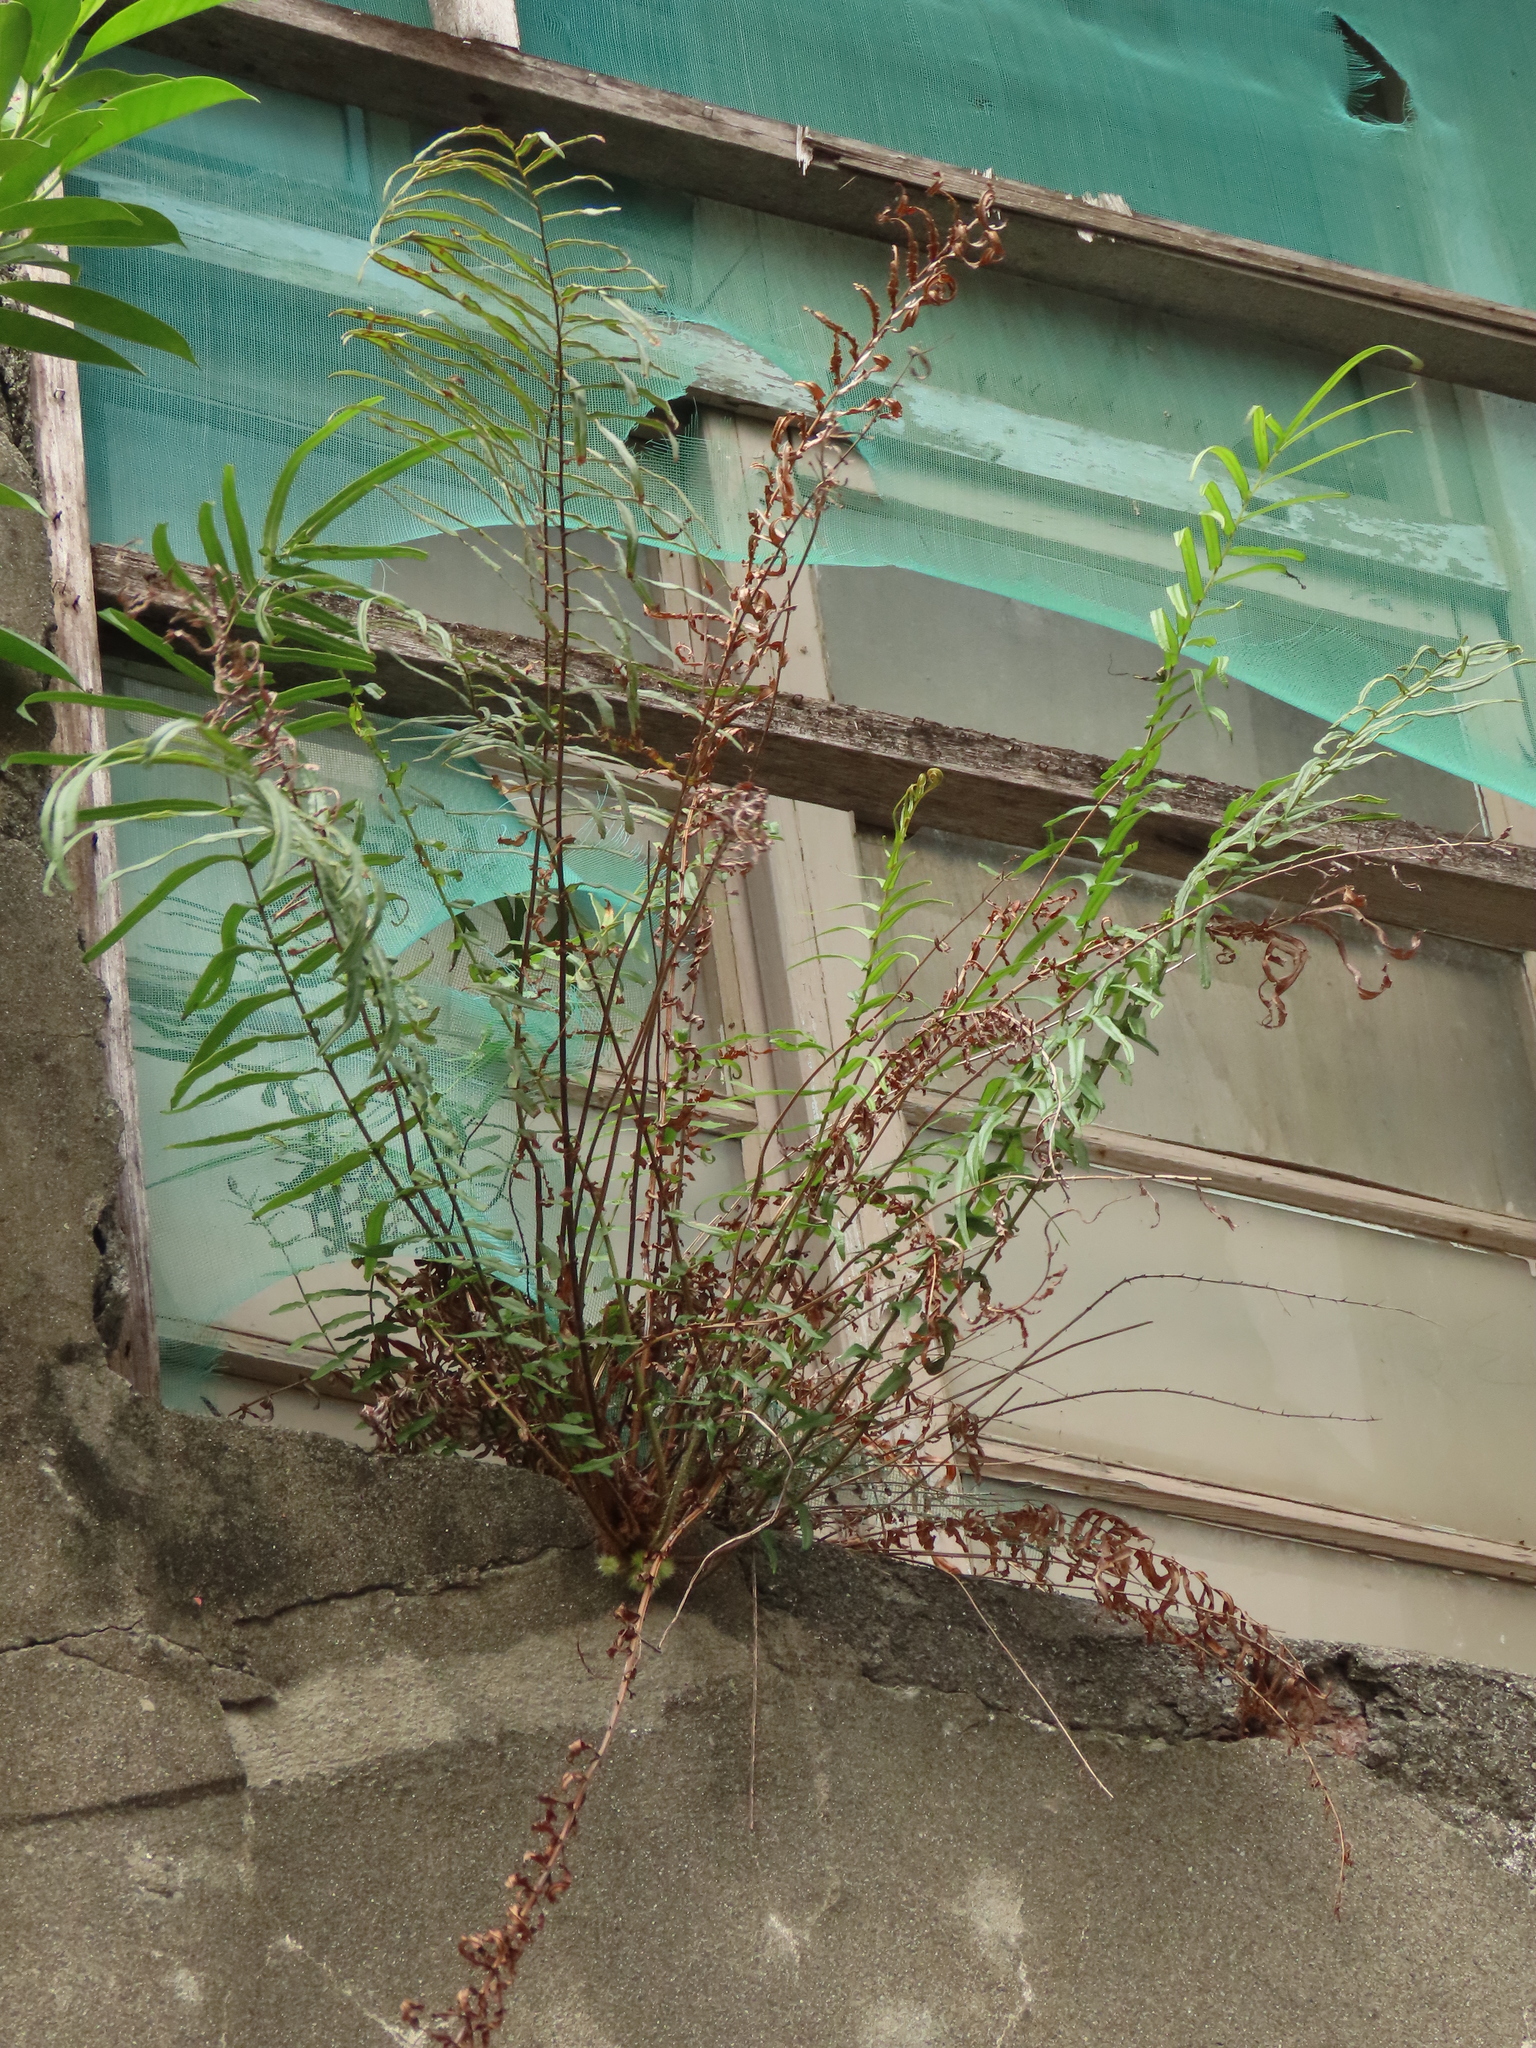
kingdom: Plantae
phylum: Tracheophyta
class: Polypodiopsida
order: Polypodiales
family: Pteridaceae
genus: Pteris
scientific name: Pteris vittata
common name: Ladder brake
